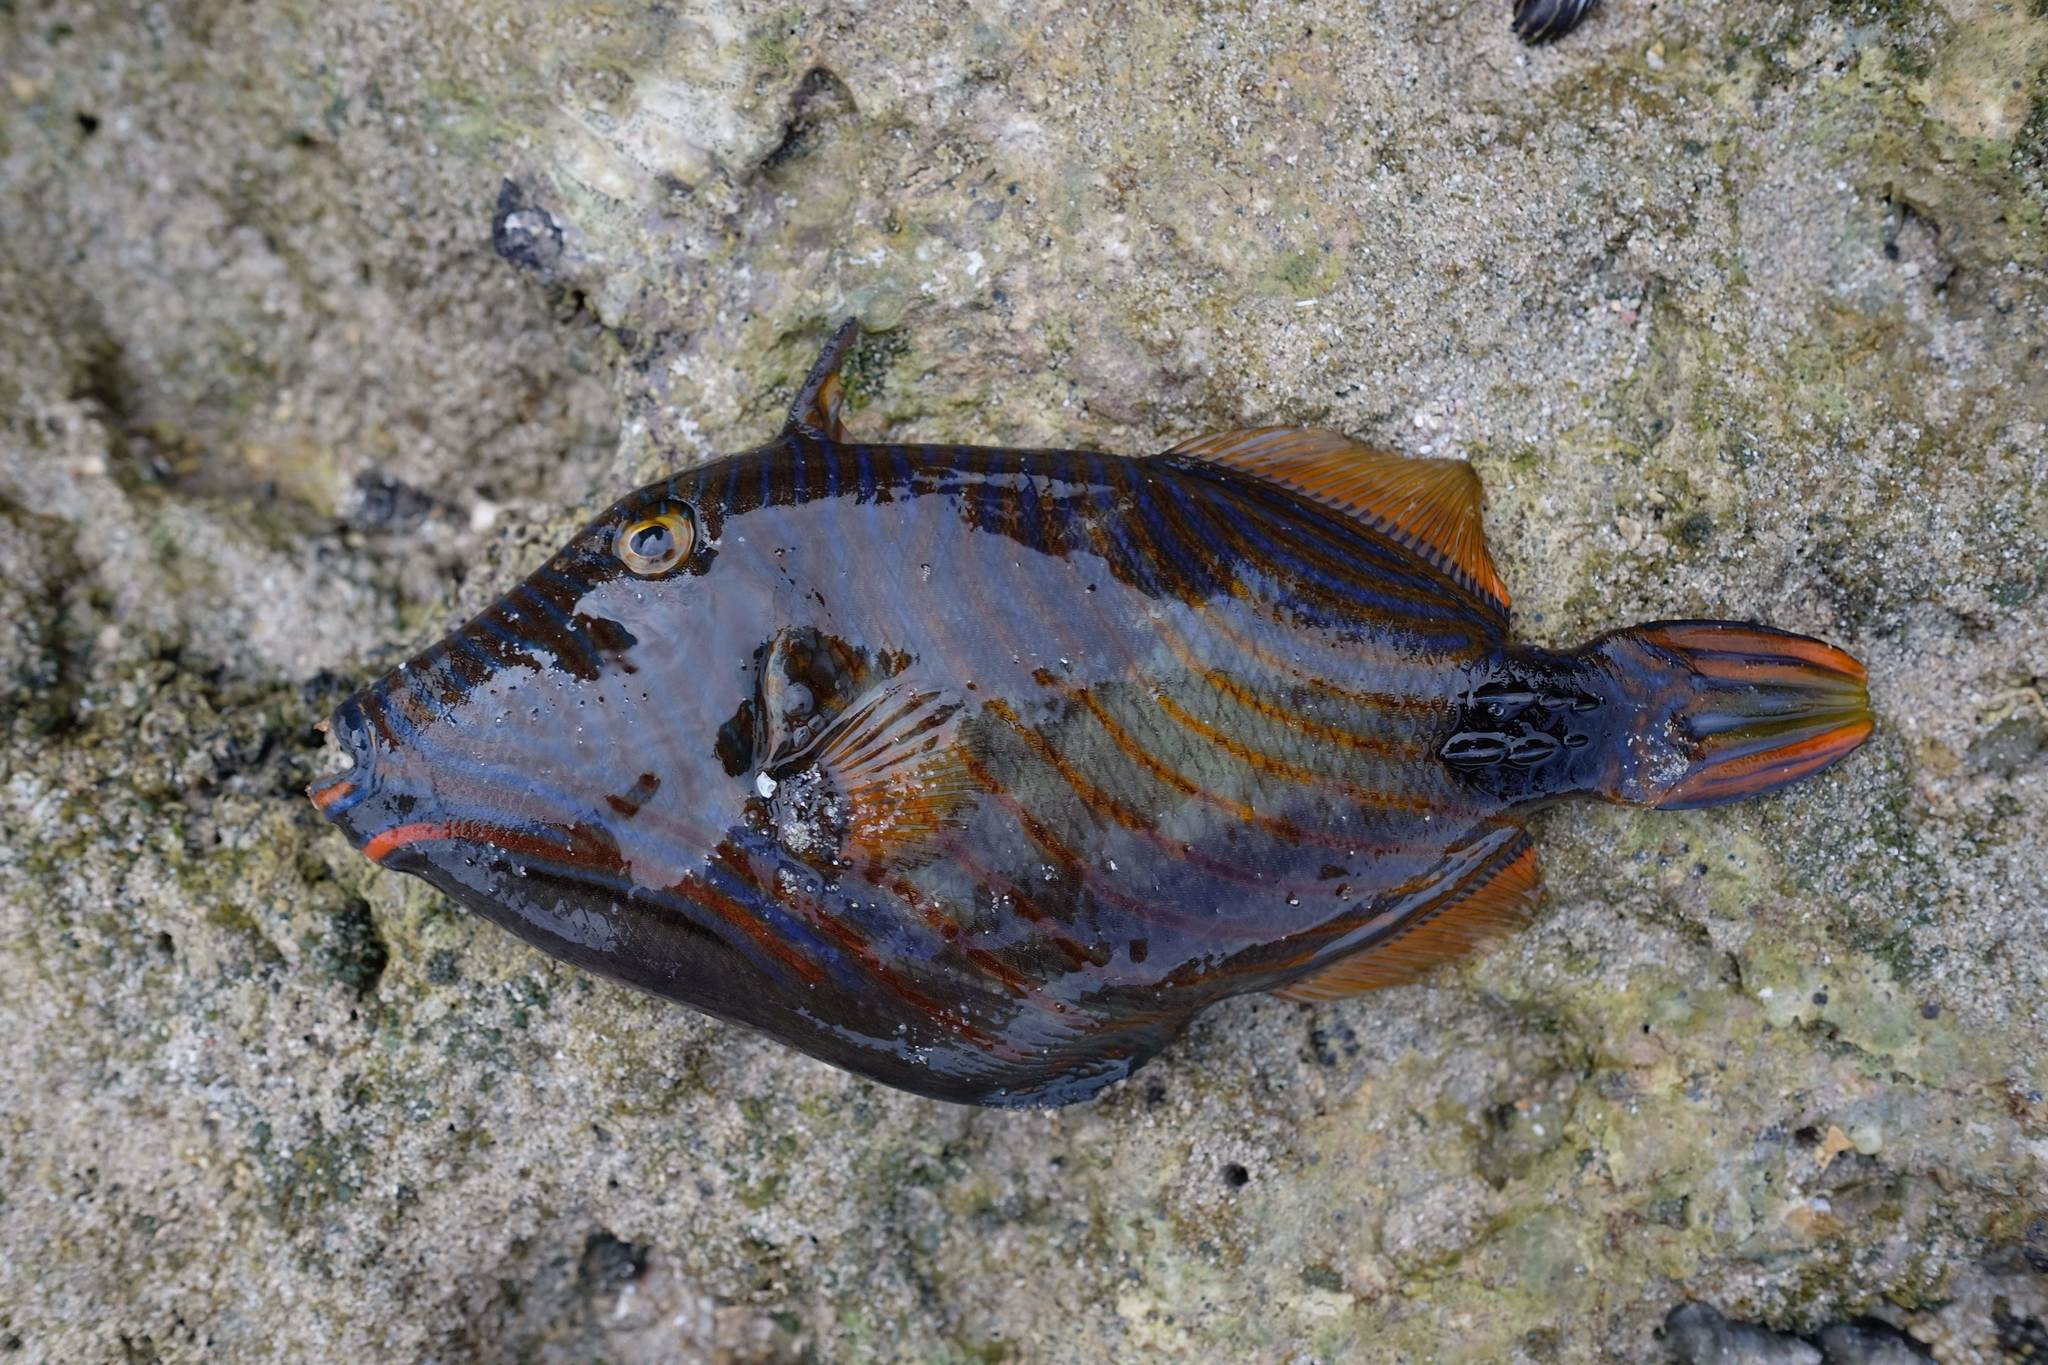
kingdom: Animalia
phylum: Chordata
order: Tetraodontiformes
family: Balistidae
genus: Balistapus
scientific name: Balistapus undulatus
